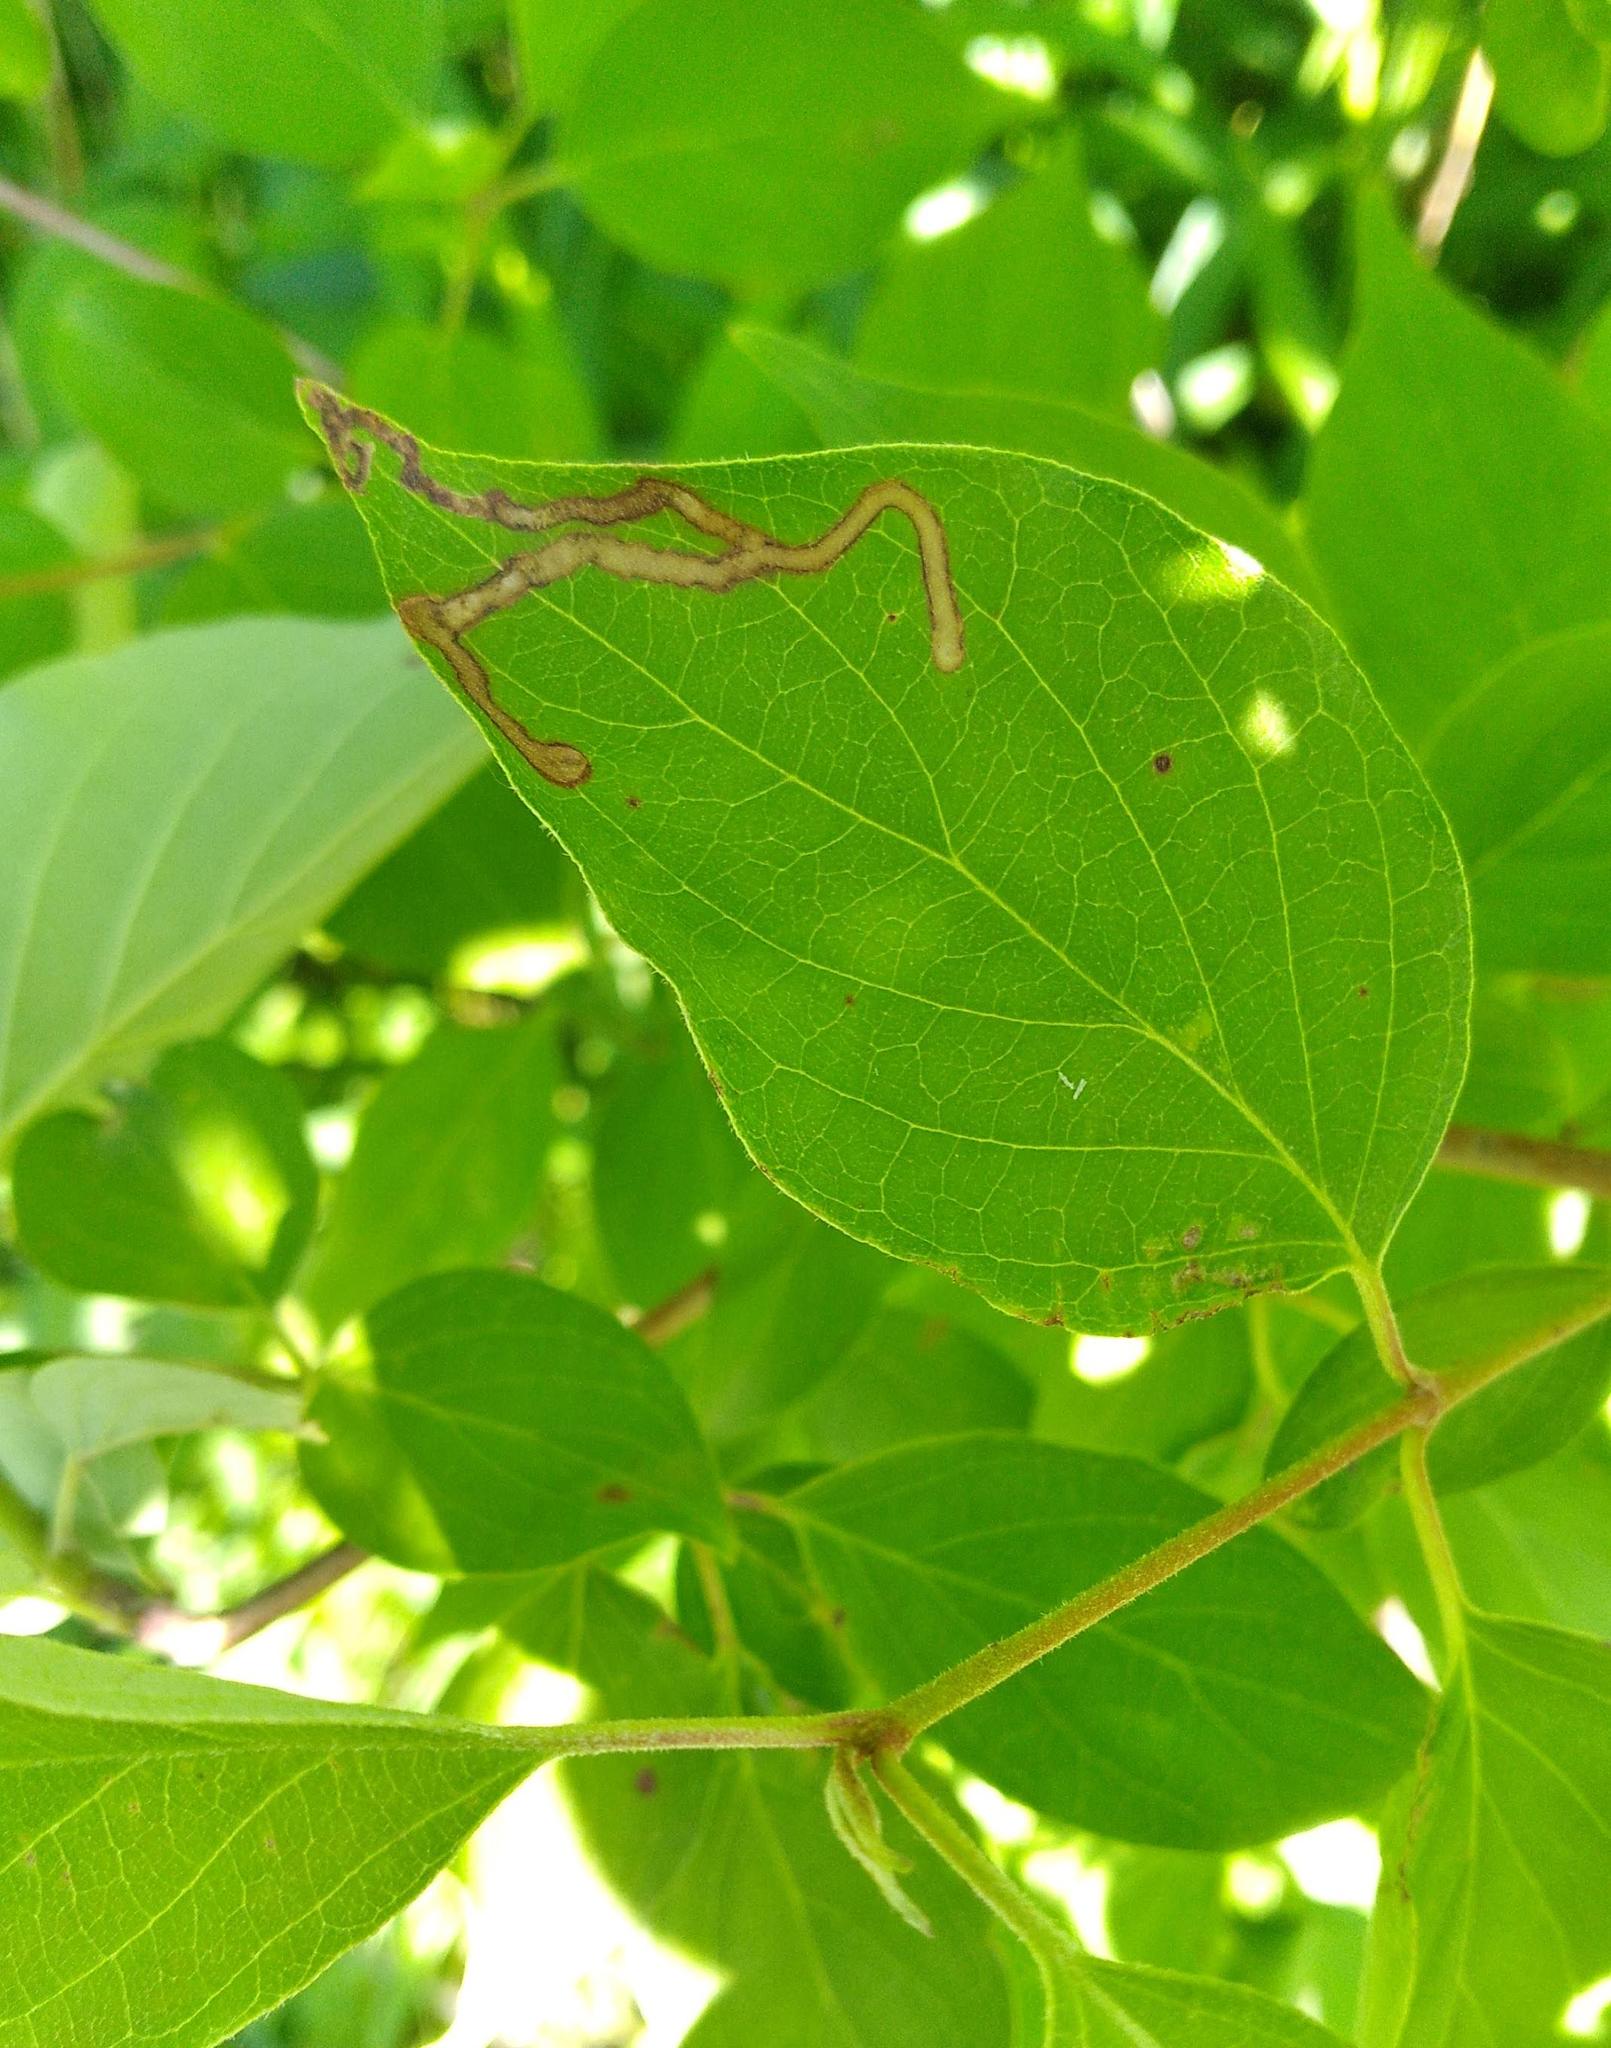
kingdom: Animalia
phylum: Arthropoda
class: Insecta
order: Diptera
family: Agromyzidae
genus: Phytomyza
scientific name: Phytomyza agromyzina
